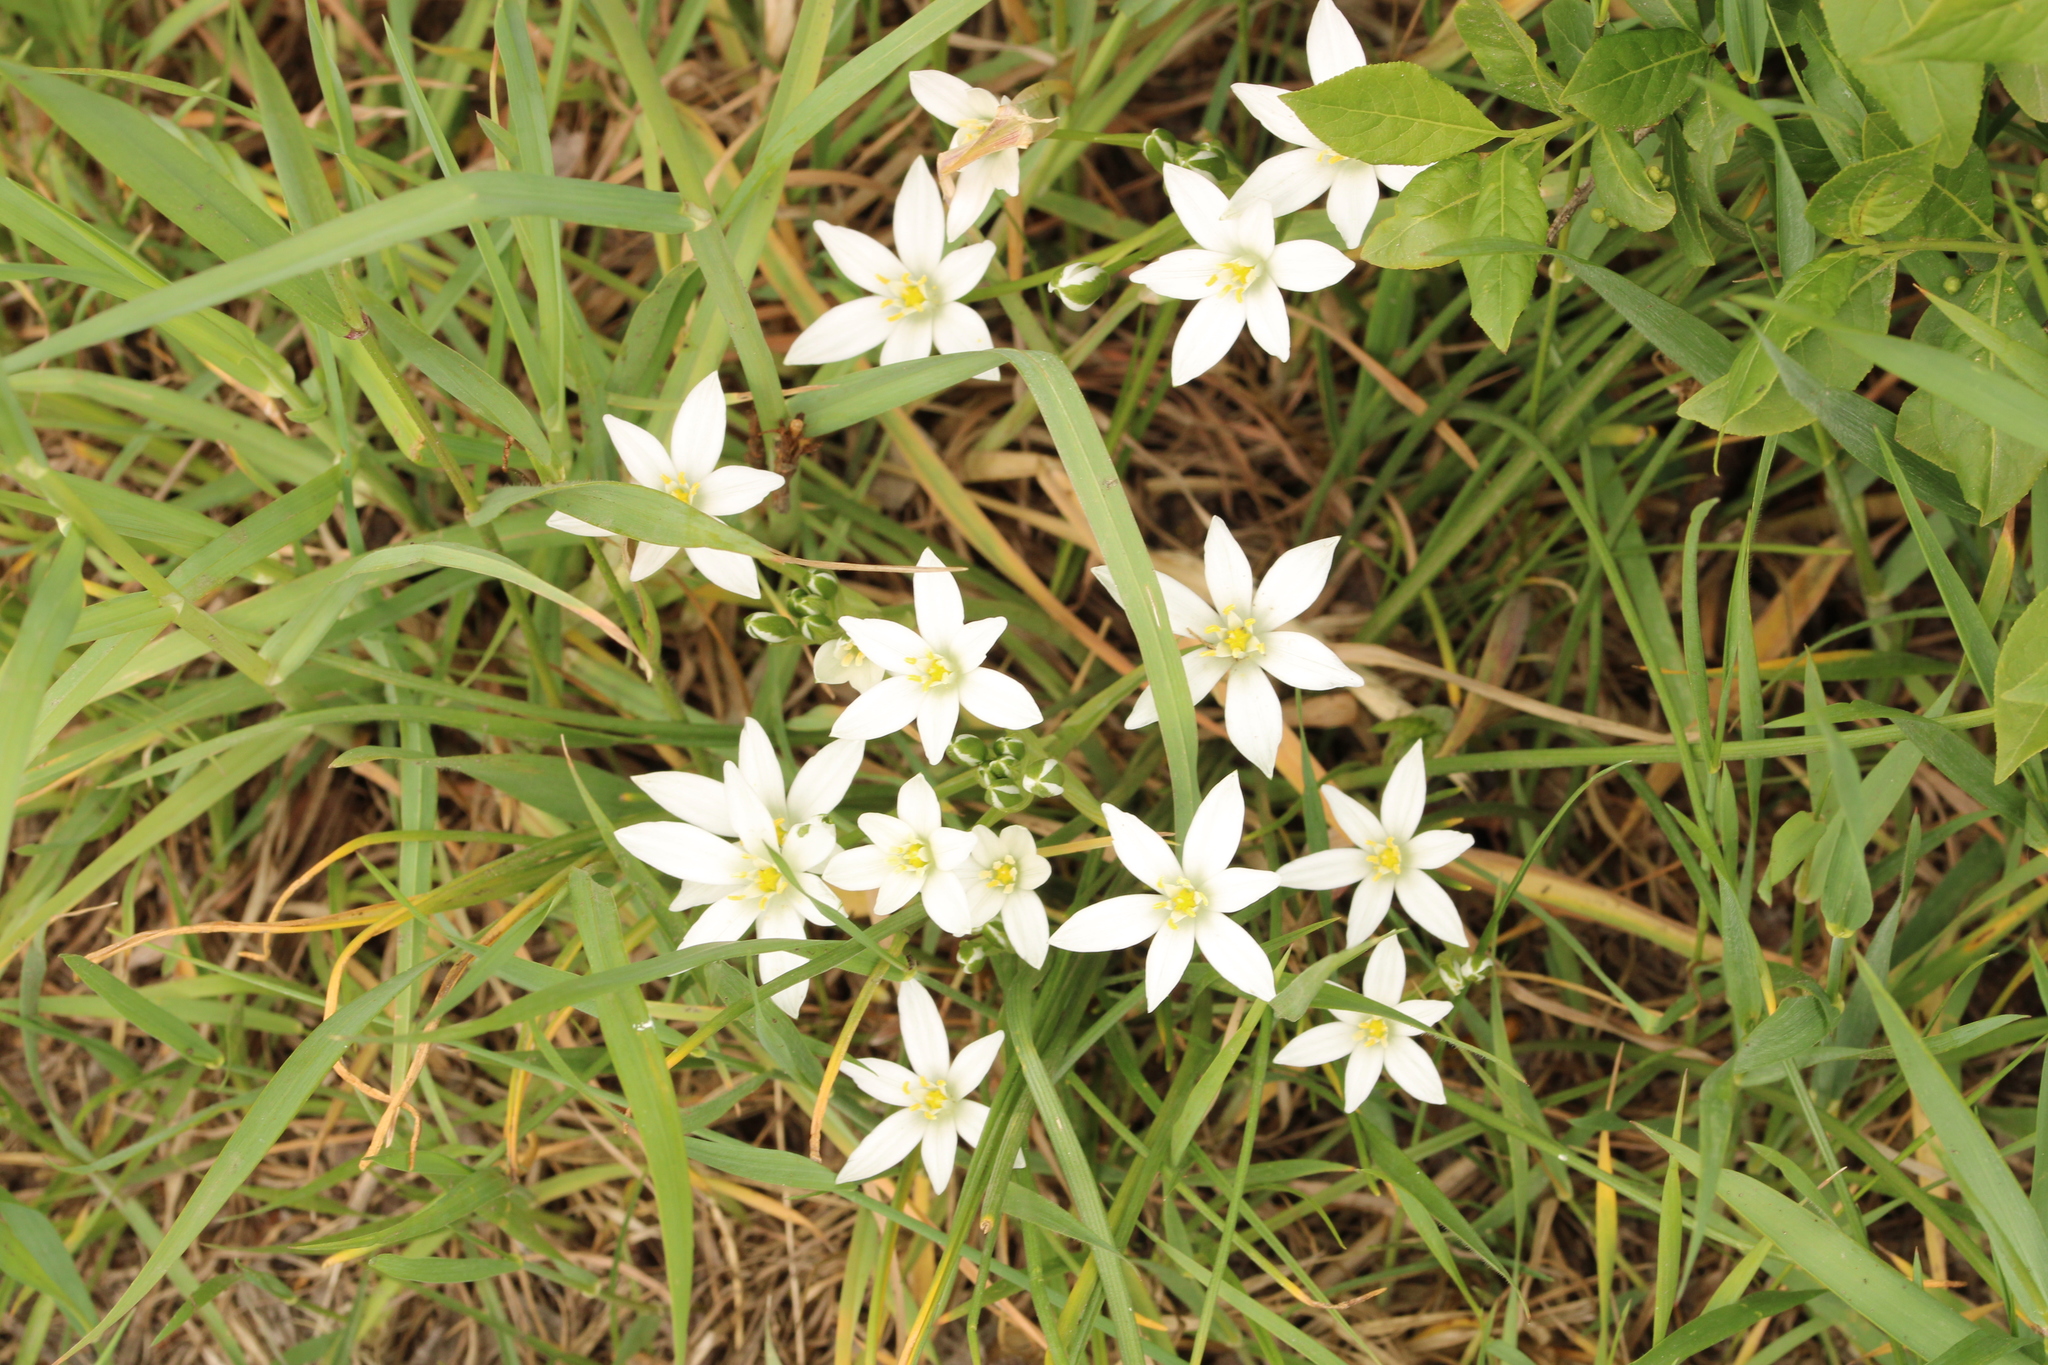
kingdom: Plantae
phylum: Tracheophyta
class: Liliopsida
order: Asparagales
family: Asparagaceae
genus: Ornithogalum
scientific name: Ornithogalum umbellatum
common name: Garden star-of-bethlehem
